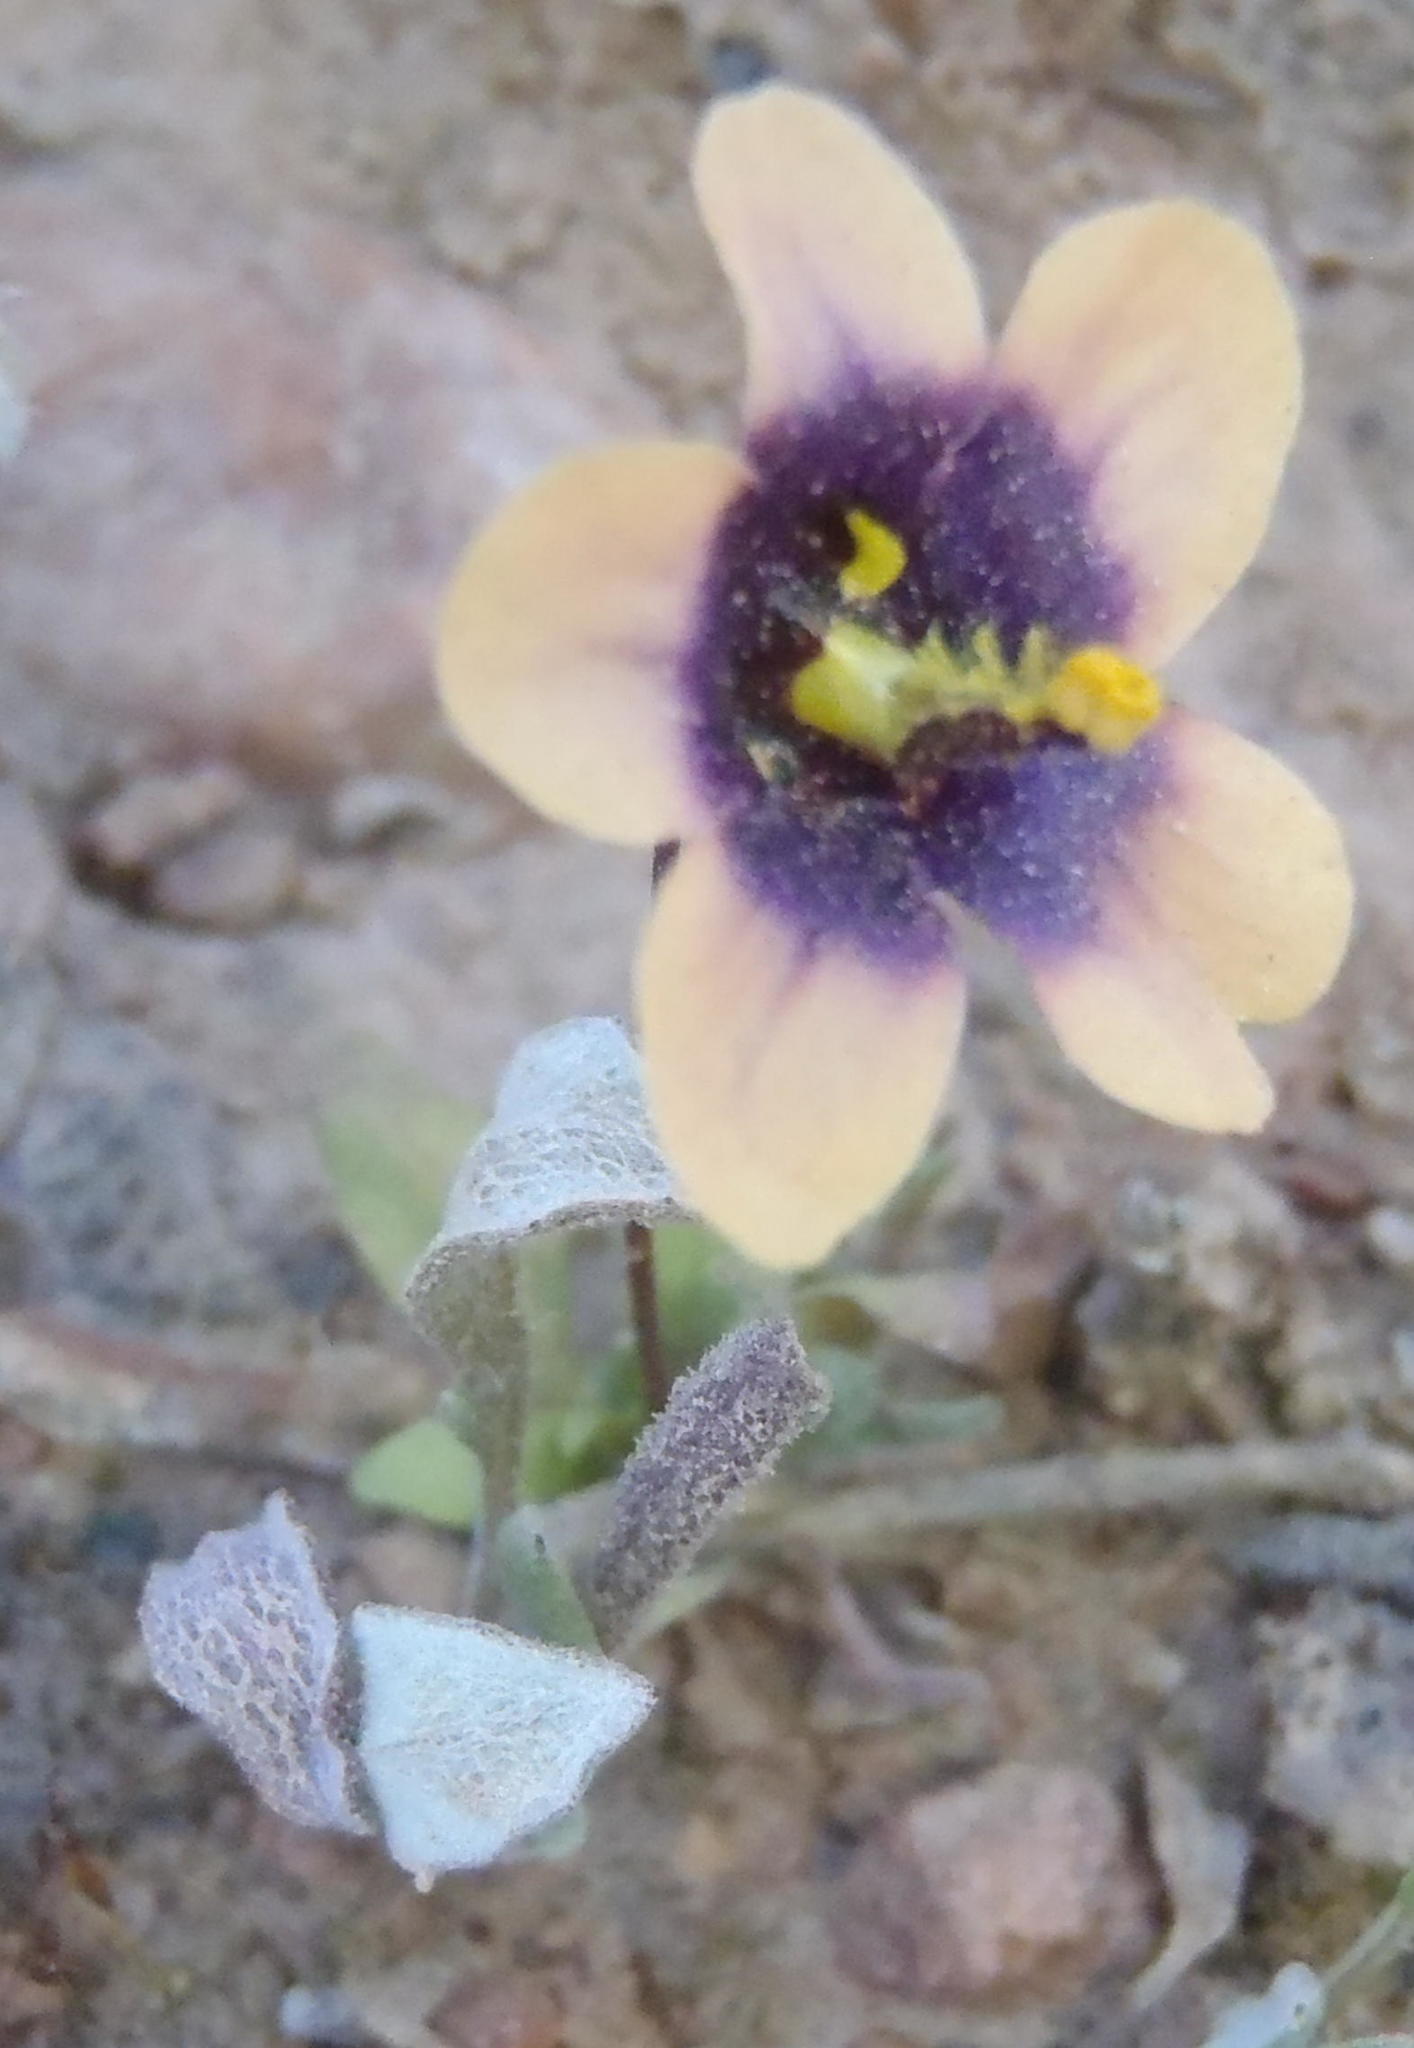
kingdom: Plantae
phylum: Tracheophyta
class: Magnoliopsida
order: Lamiales
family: Scrophulariaceae
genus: Diascia
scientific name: Diascia bicolor
